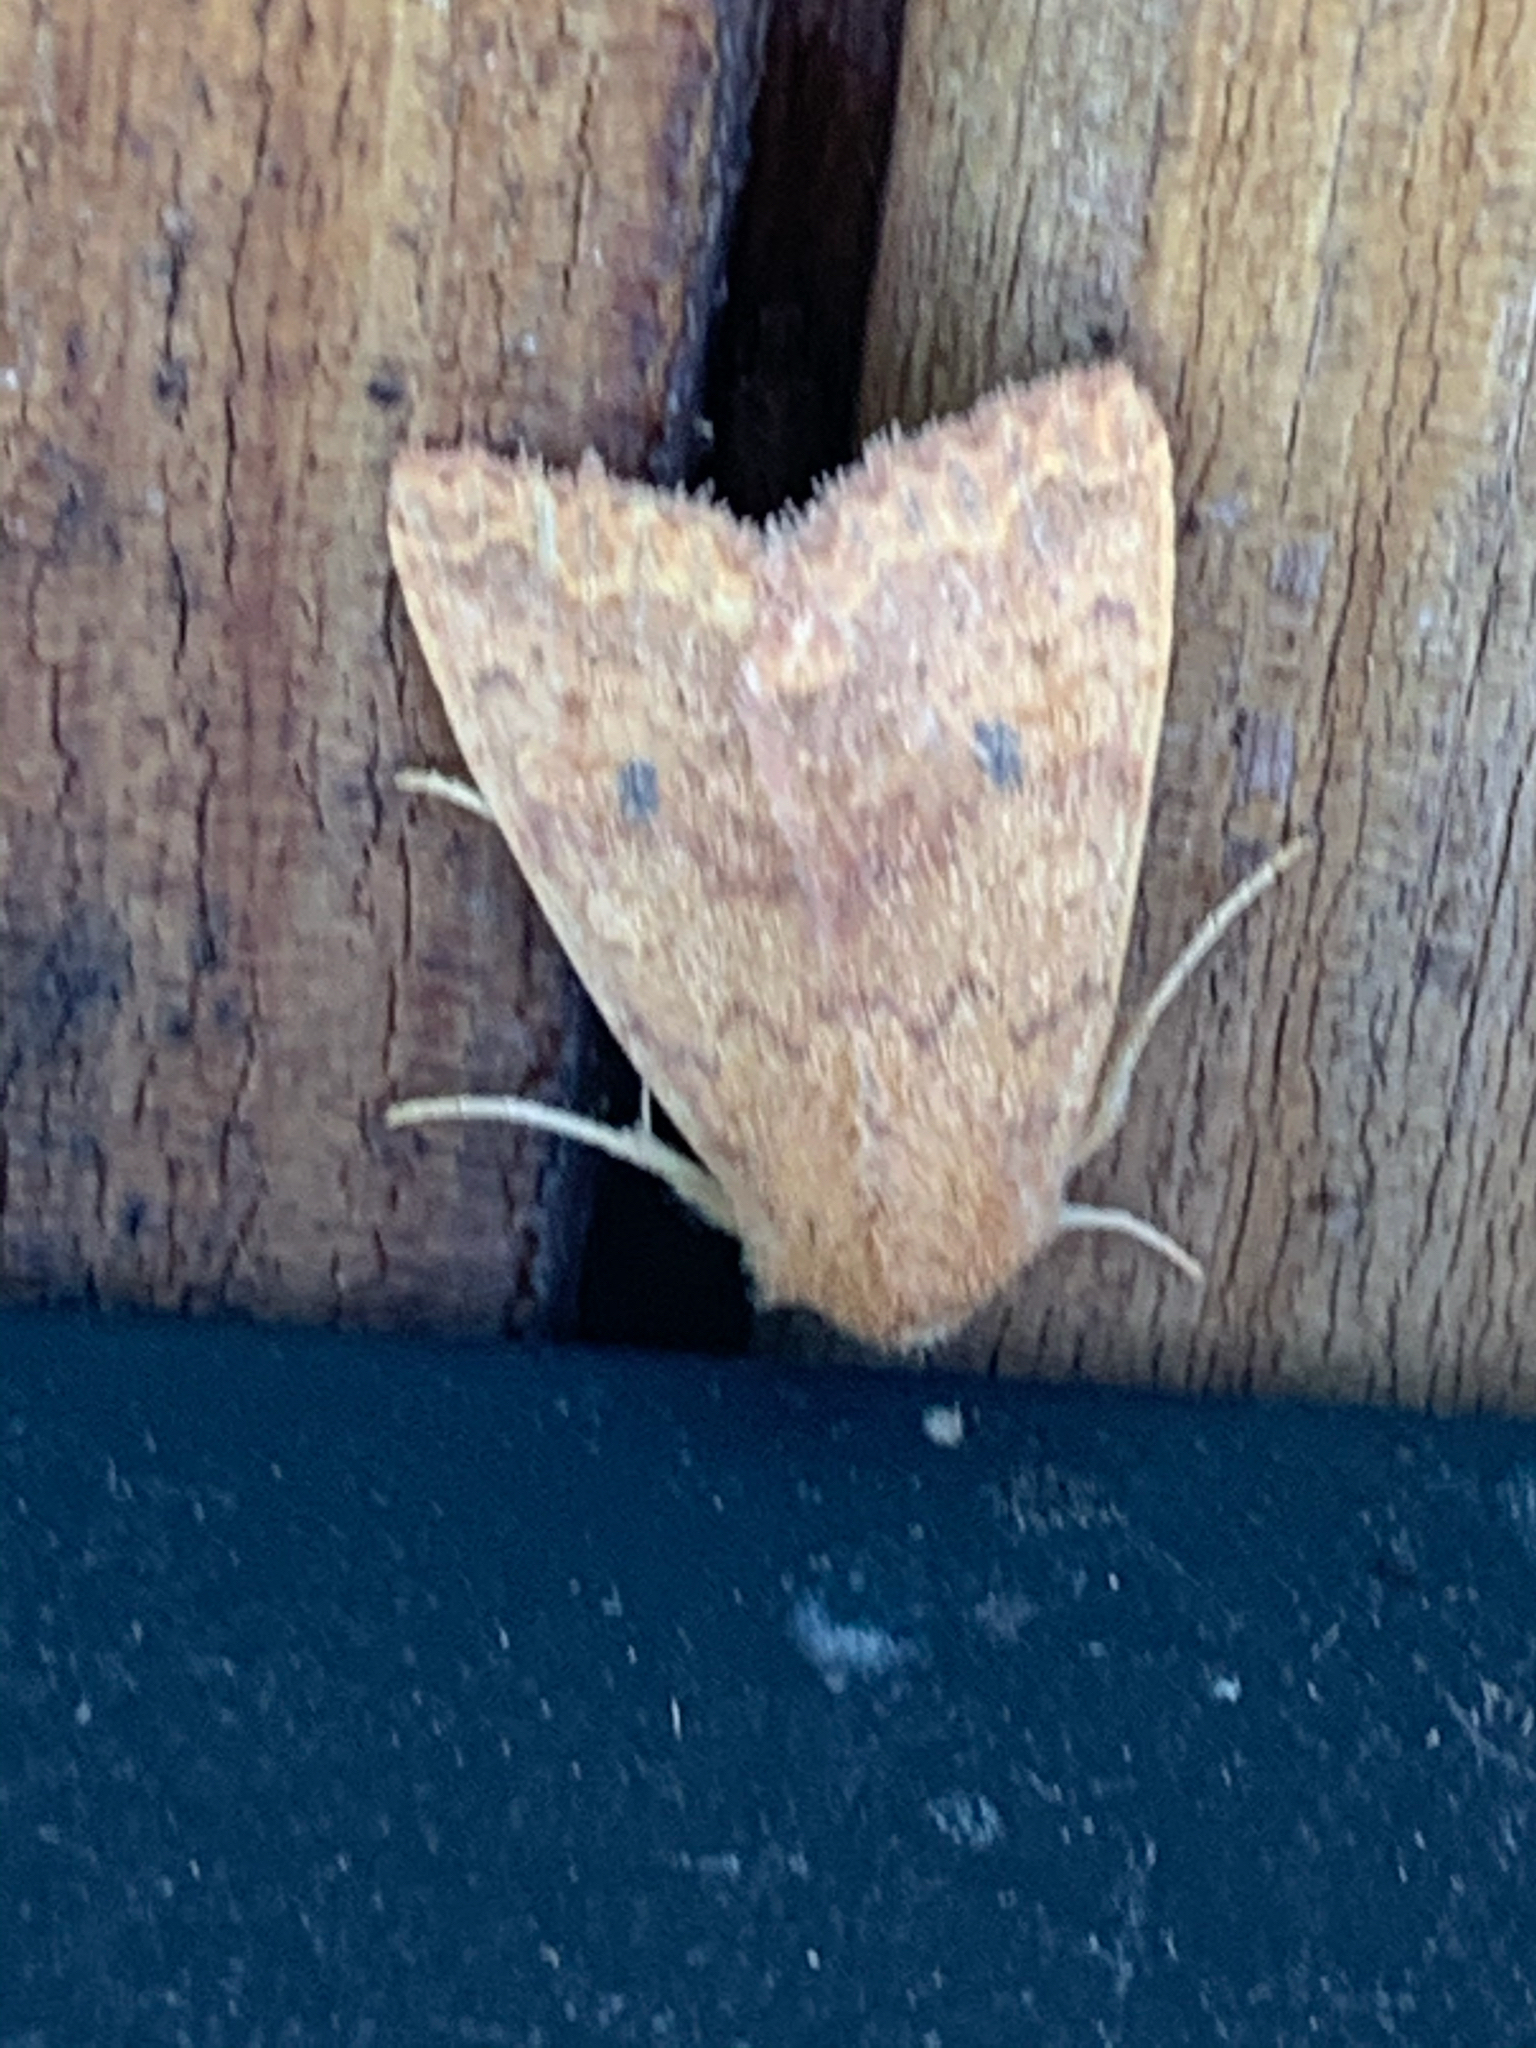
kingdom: Animalia
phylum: Arthropoda
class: Insecta
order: Lepidoptera
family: Noctuidae
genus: Agrochola
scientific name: Agrochola bicolorago
